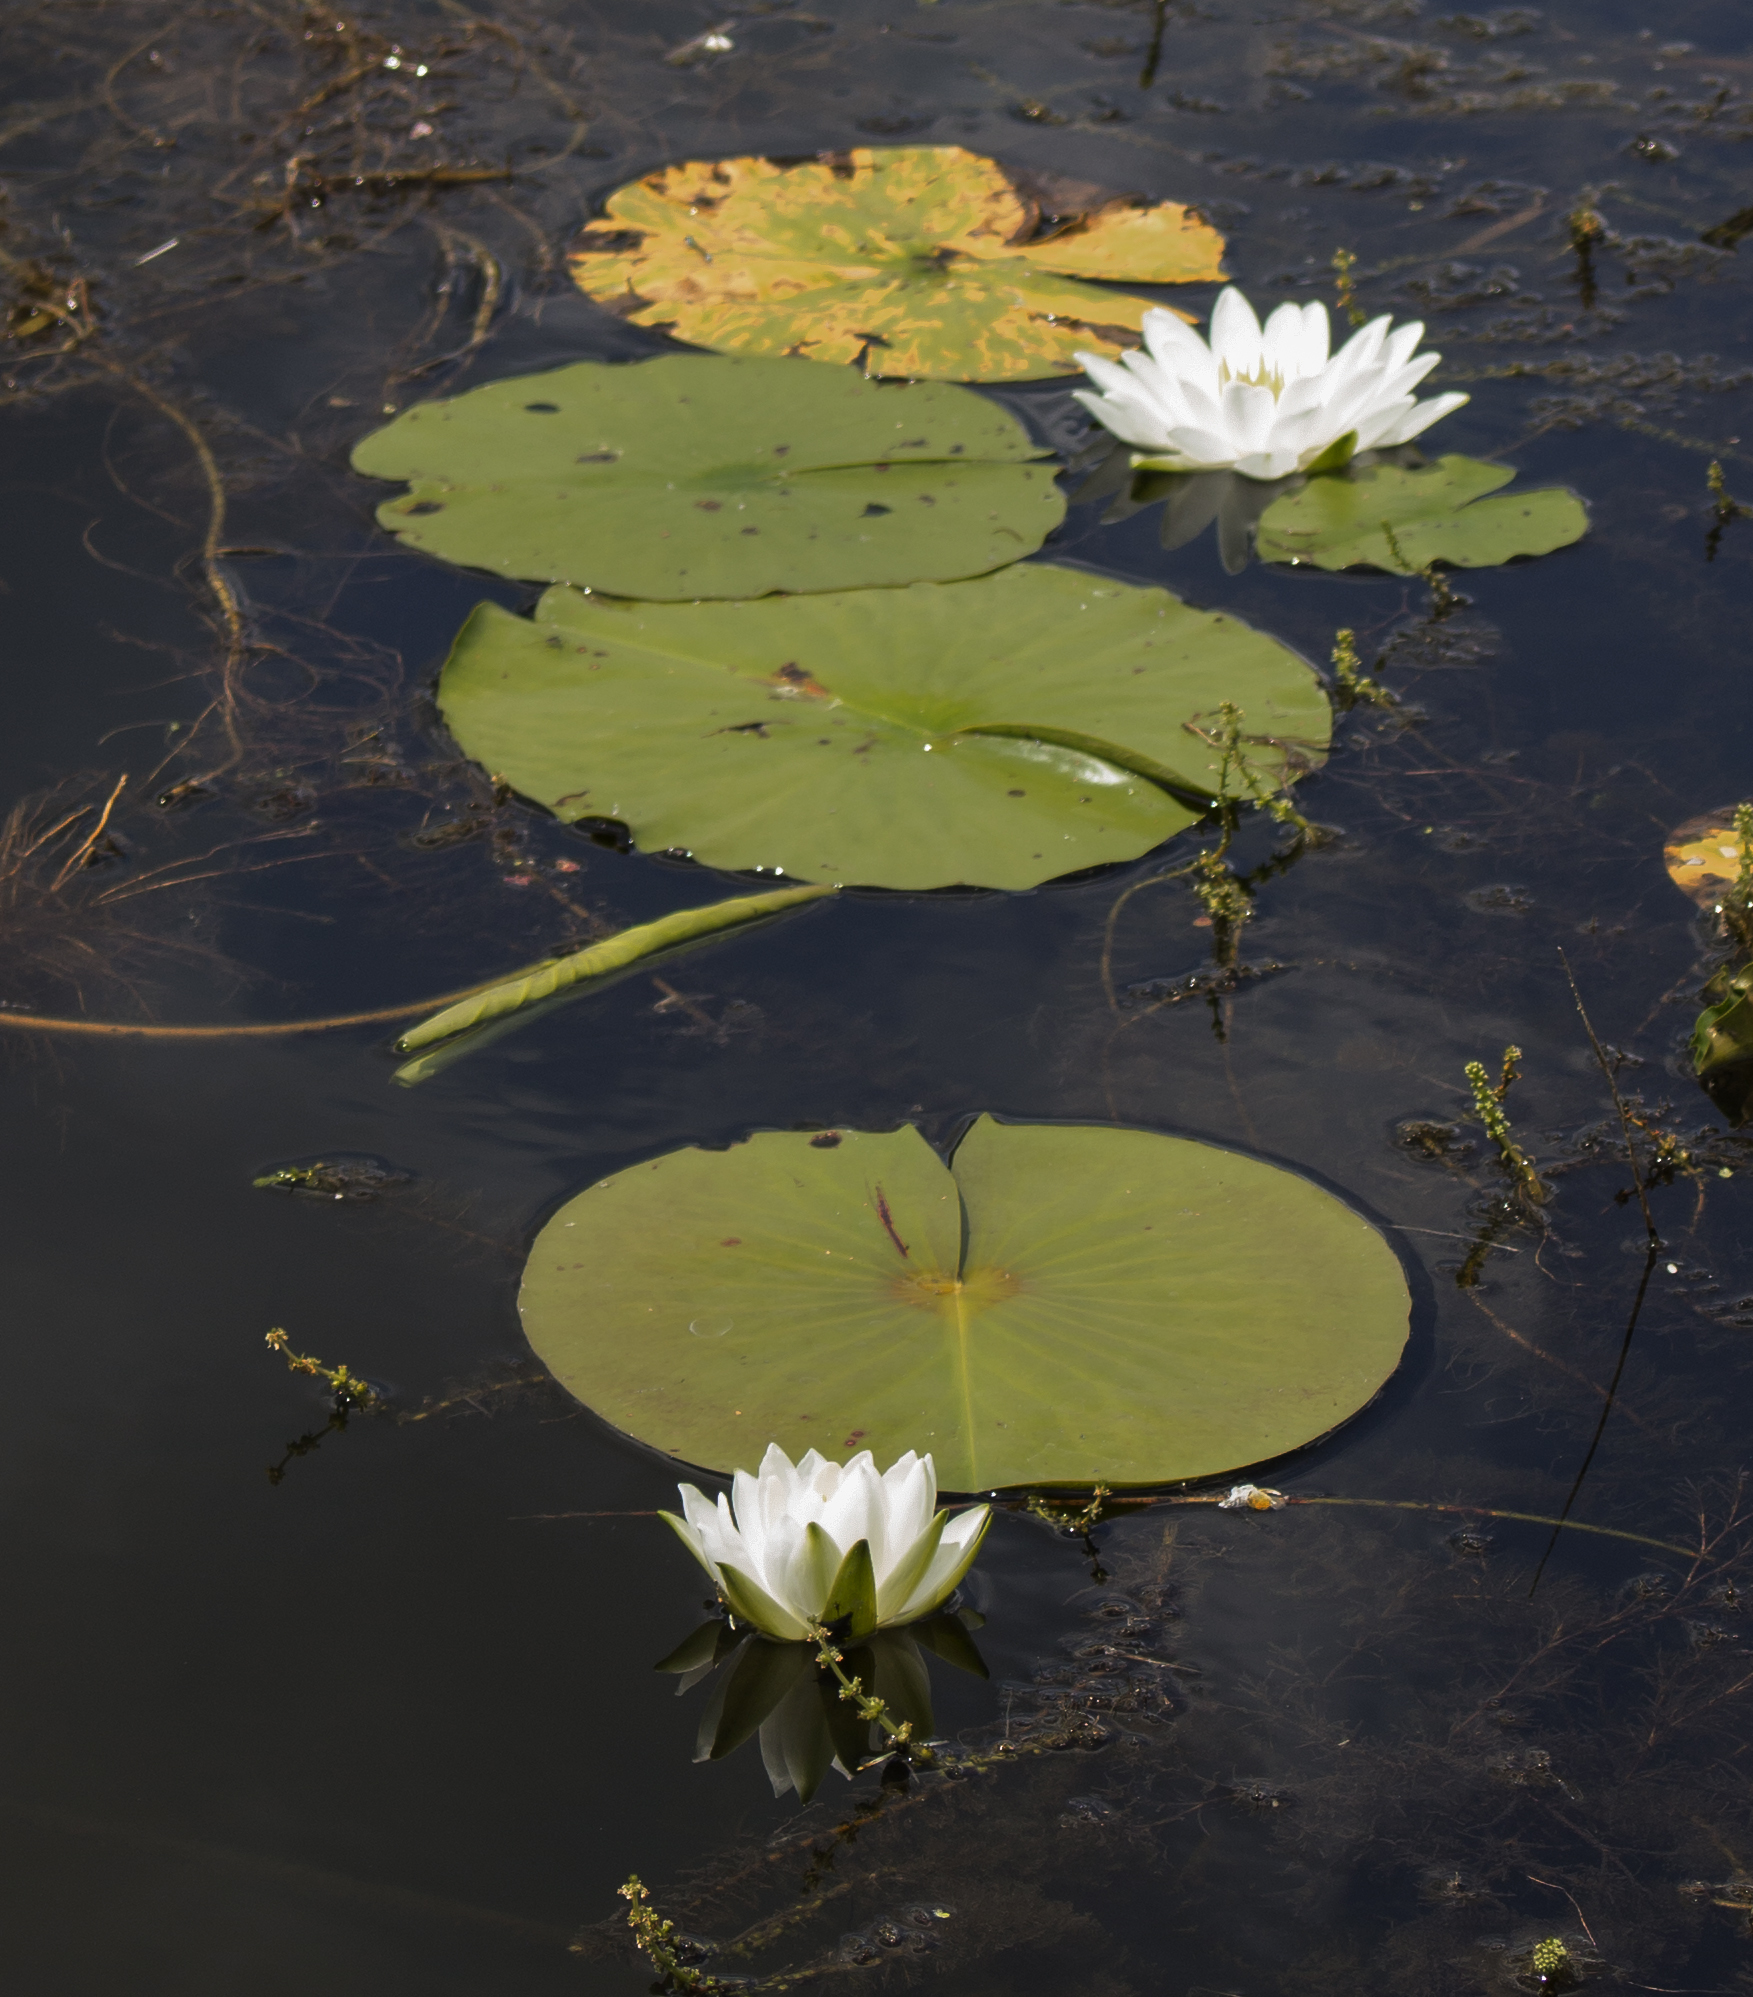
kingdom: Plantae
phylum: Tracheophyta
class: Magnoliopsida
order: Nymphaeales
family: Nymphaeaceae
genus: Nymphaea
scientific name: Nymphaea odorata
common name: Fragrant water-lily
